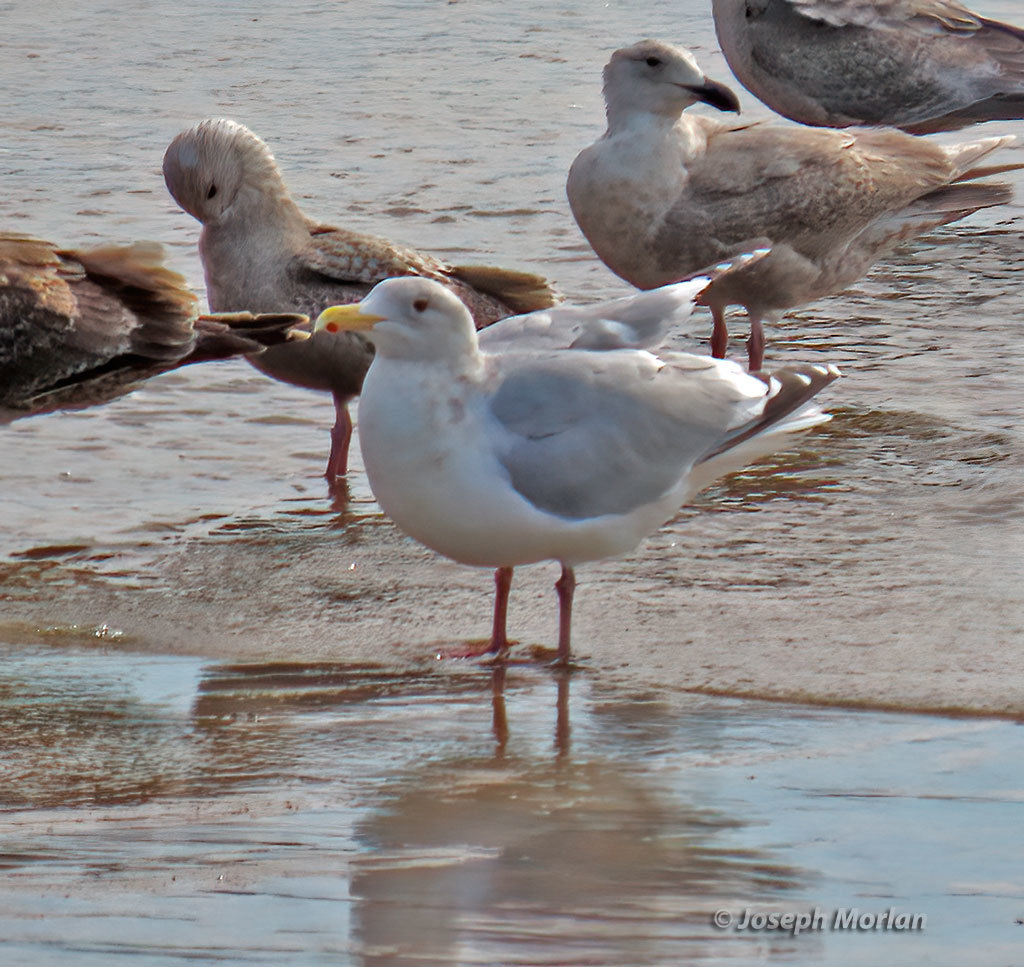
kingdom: Animalia
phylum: Chordata
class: Aves
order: Charadriiformes
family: Laridae
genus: Larus
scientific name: Larus
